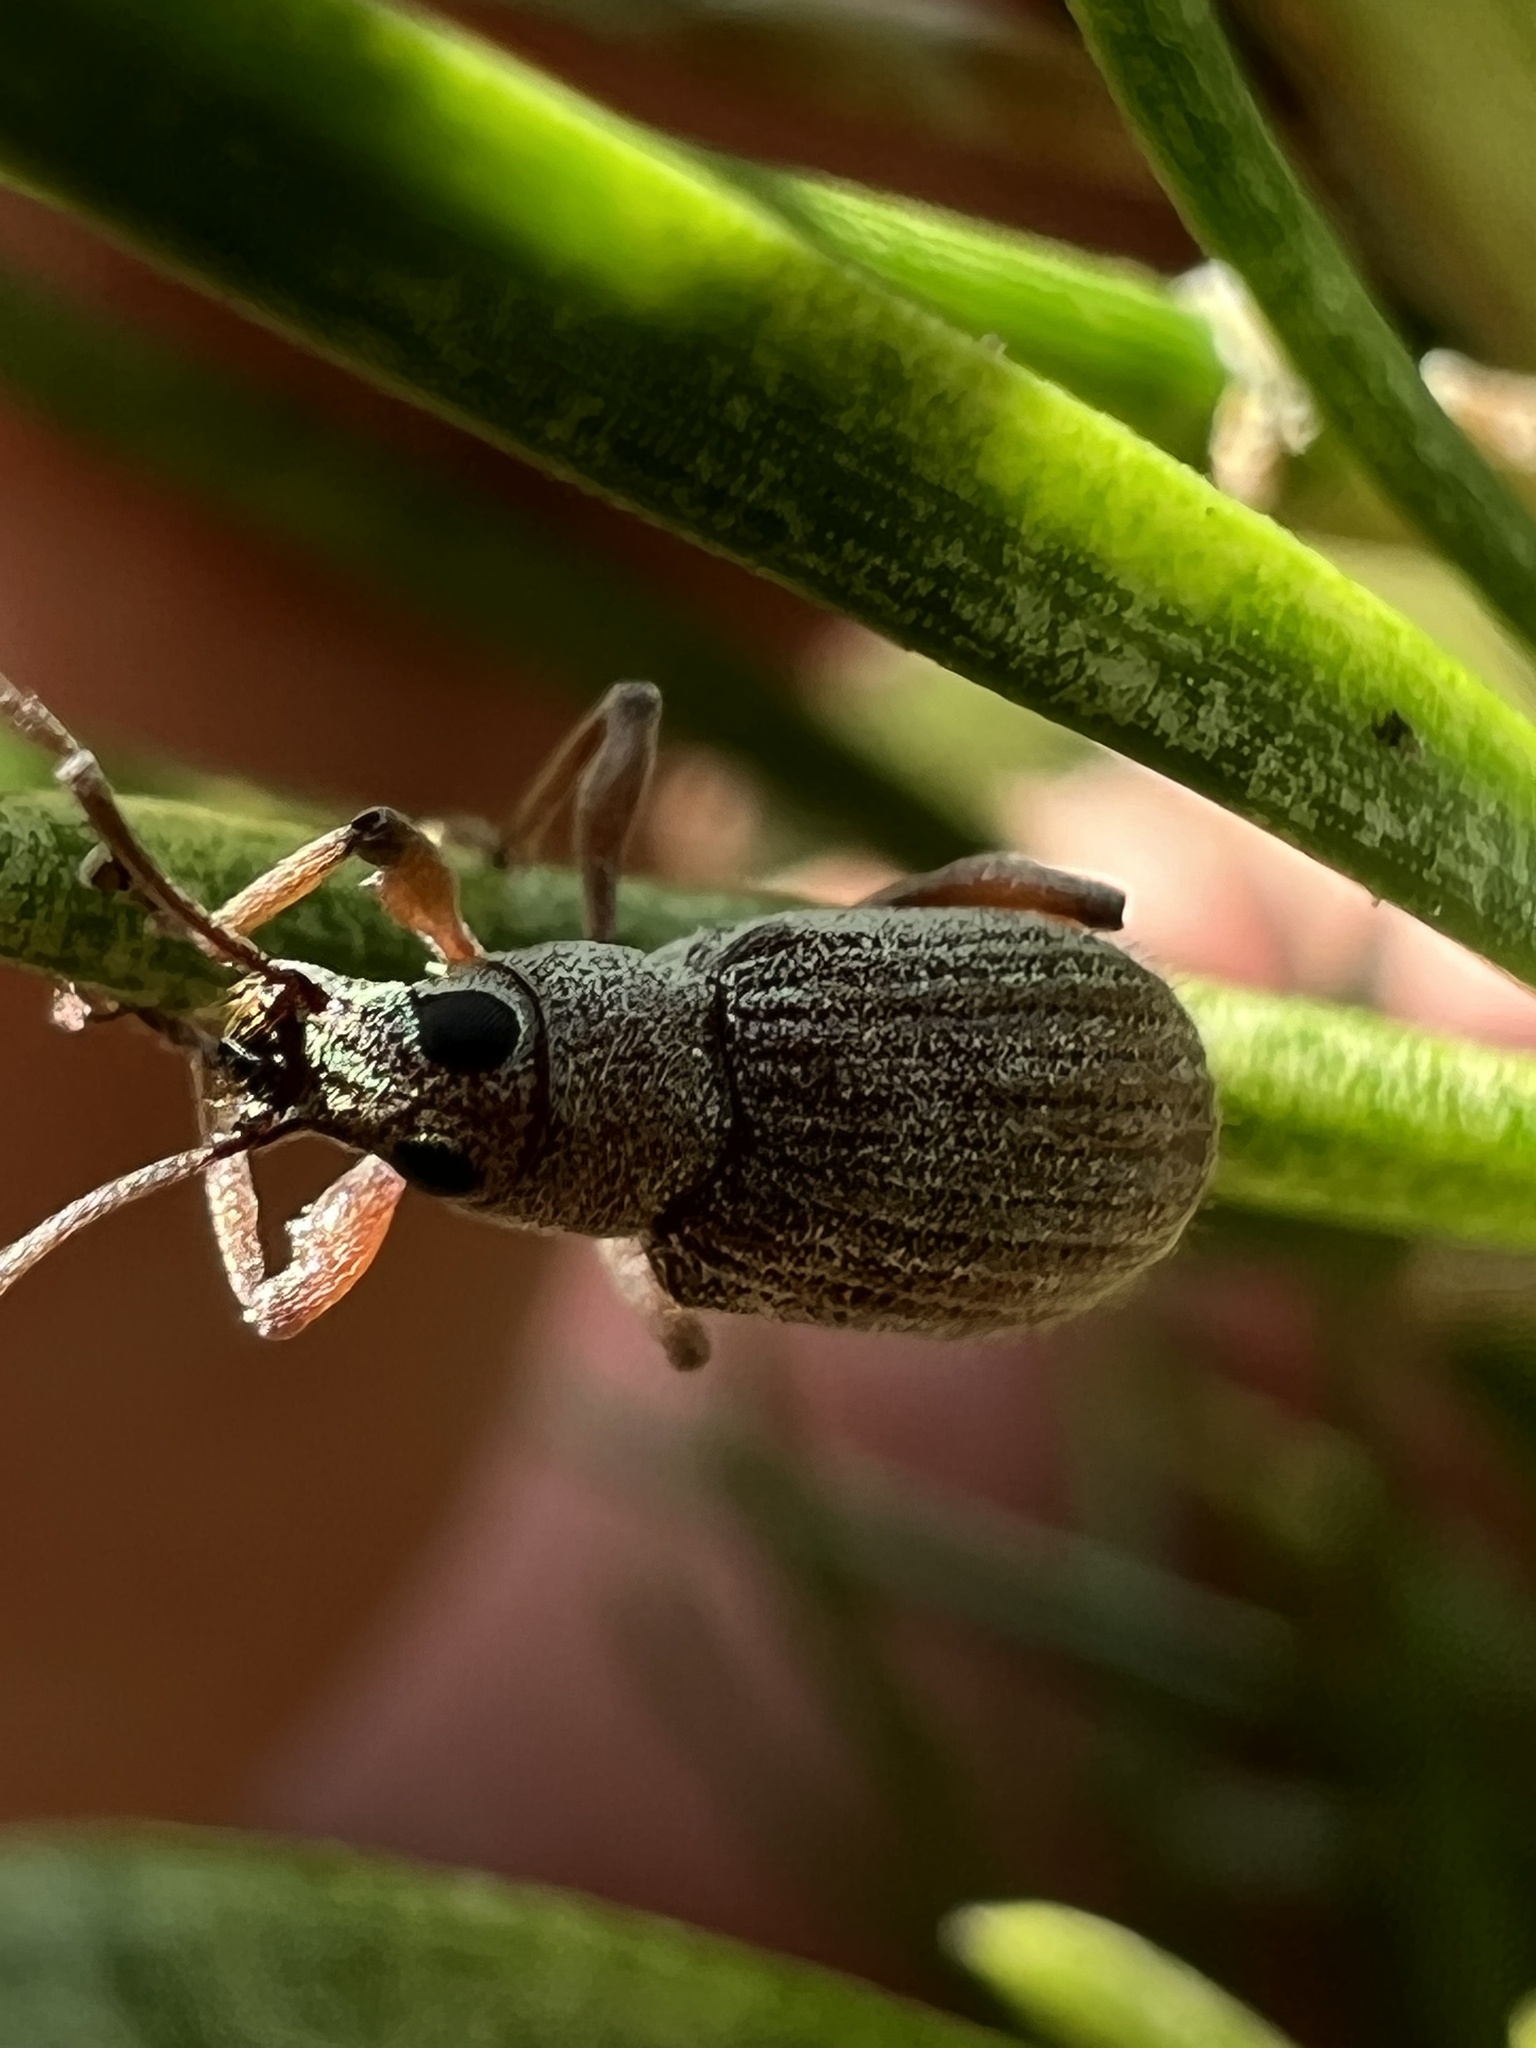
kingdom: Animalia
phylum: Arthropoda
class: Insecta
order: Coleoptera
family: Curculionidae
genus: Cyrtepistomus
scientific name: Cyrtepistomus castaneus
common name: Weevil
